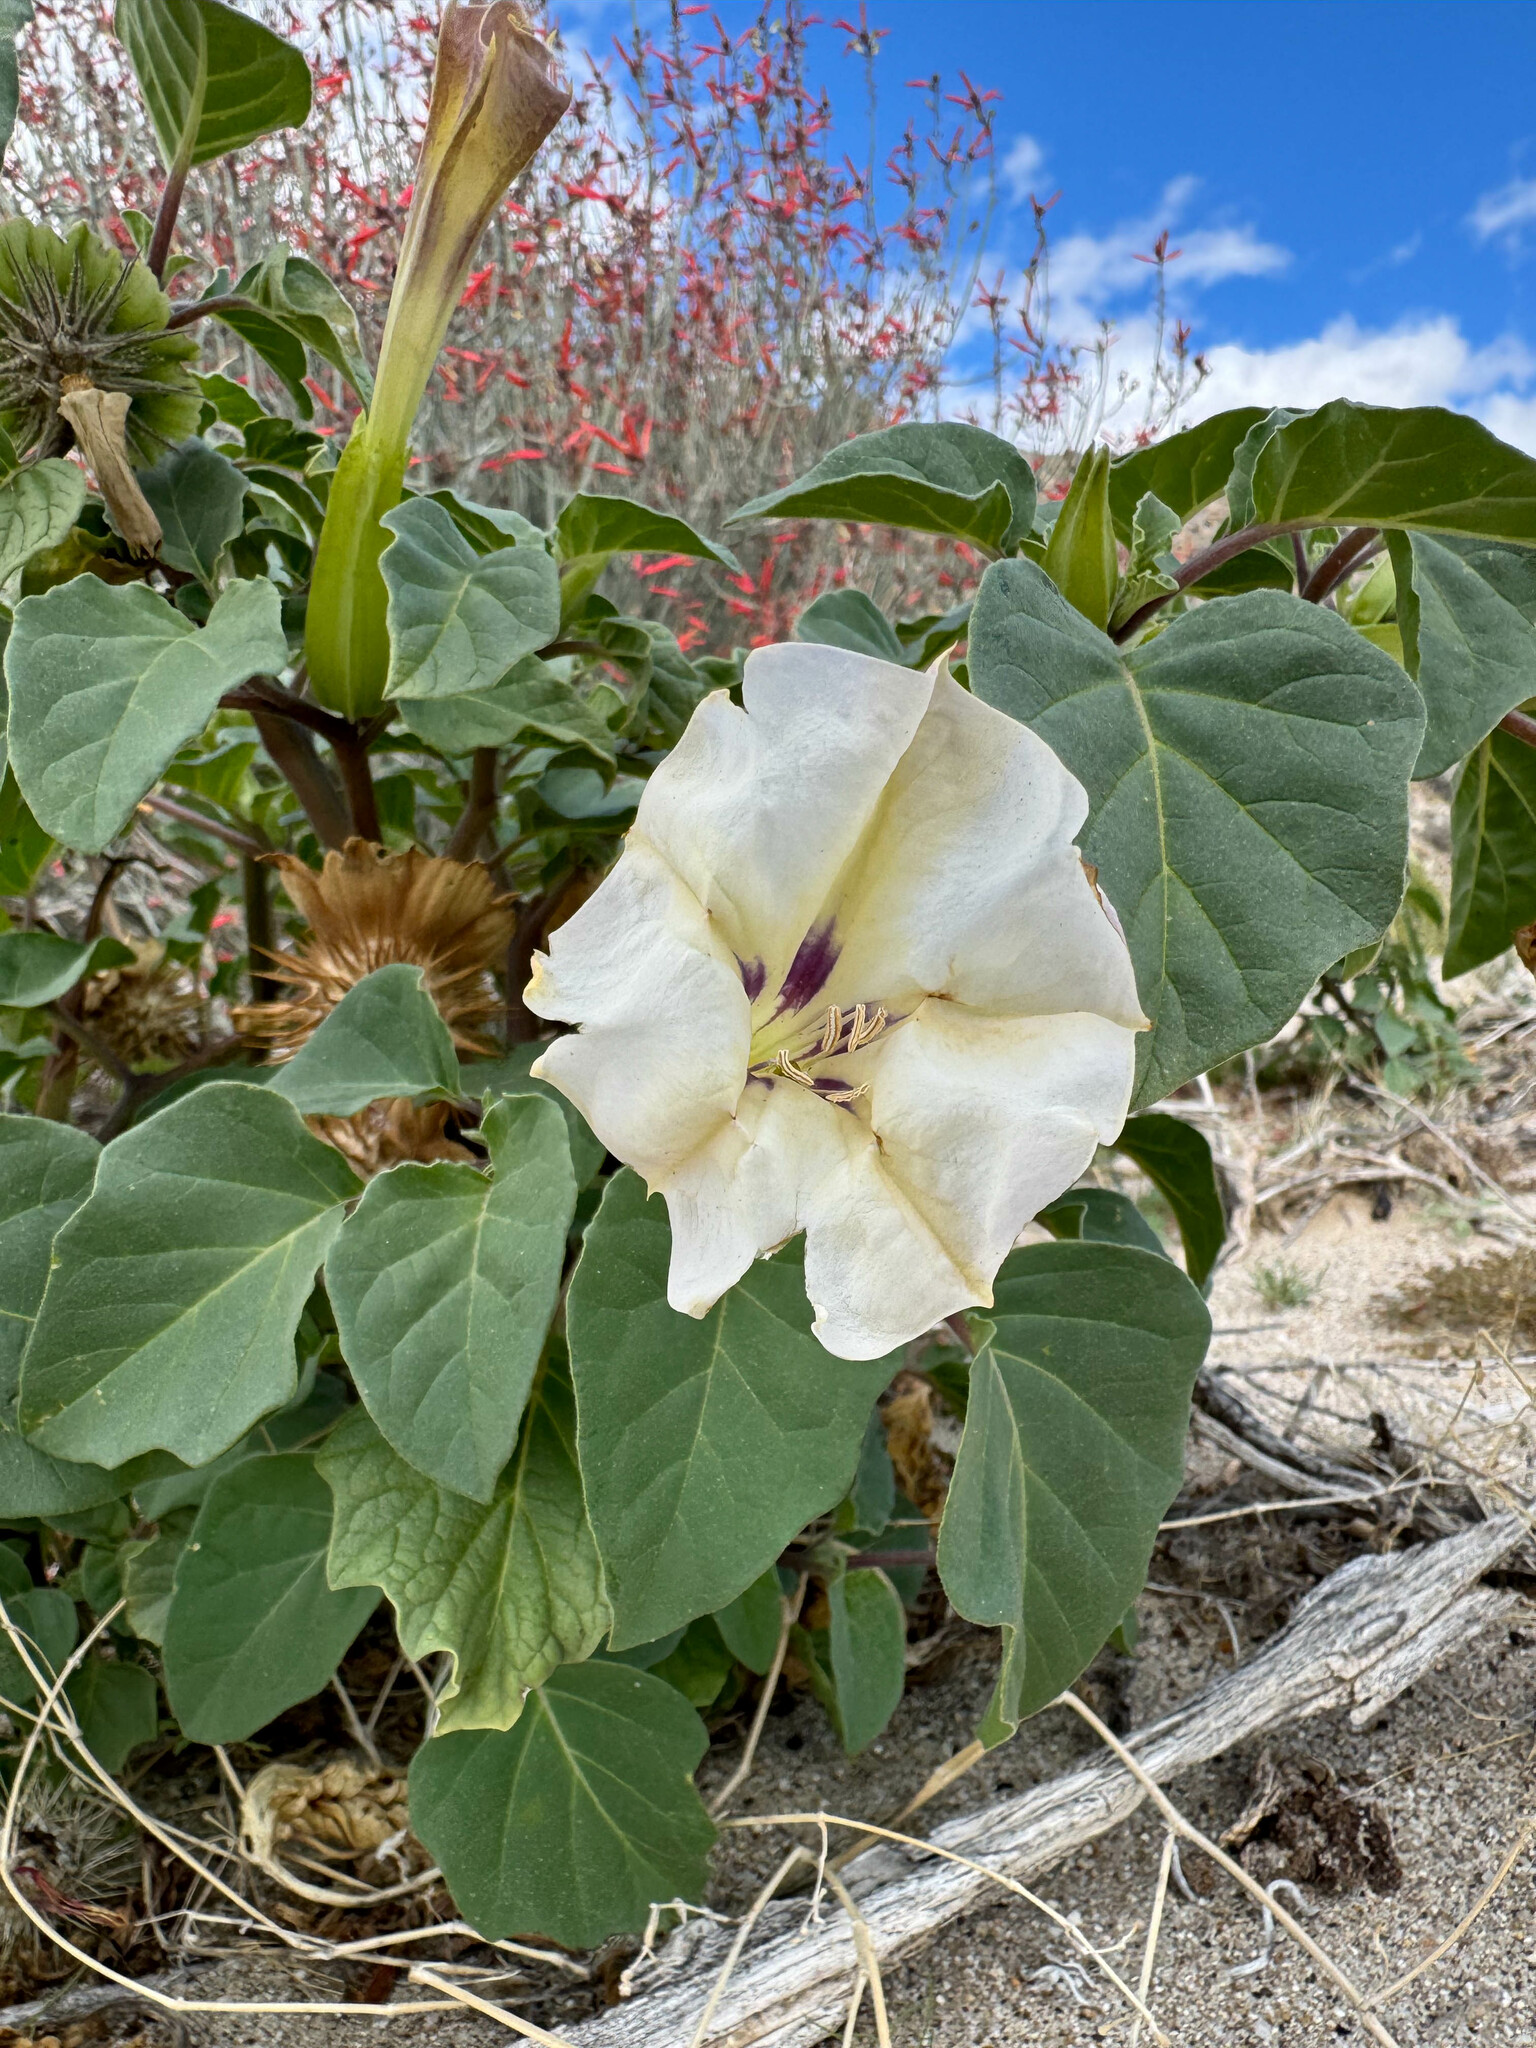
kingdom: Plantae
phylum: Tracheophyta
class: Magnoliopsida
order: Solanales
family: Solanaceae
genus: Datura
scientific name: Datura discolor
